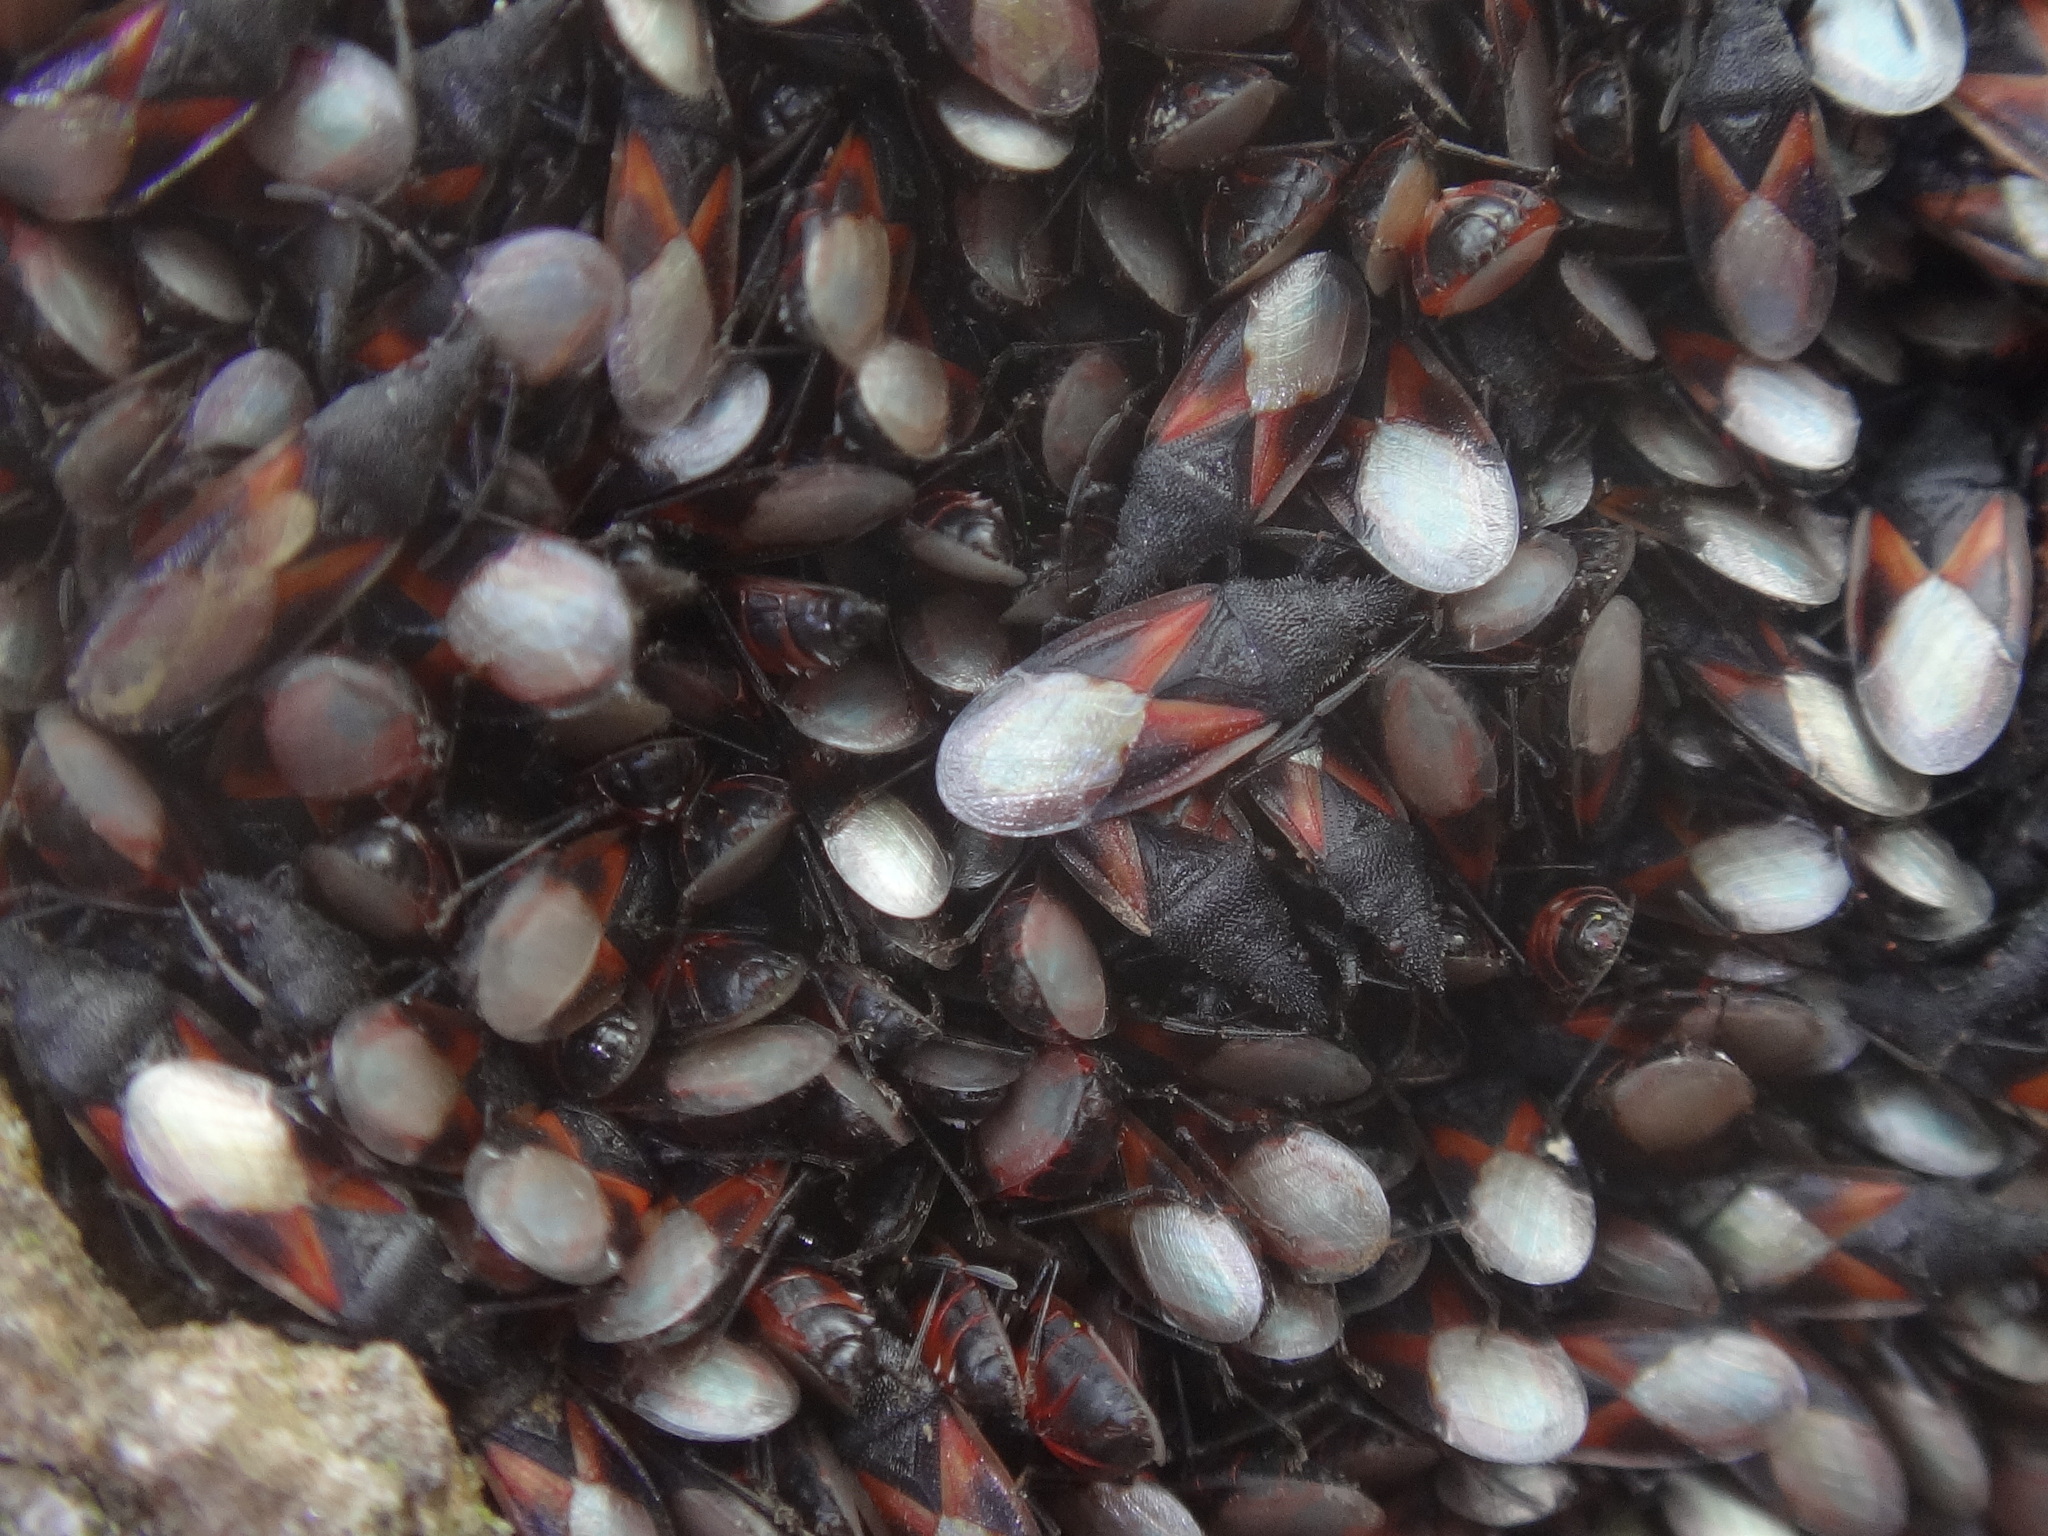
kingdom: Animalia
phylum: Arthropoda
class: Insecta
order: Hemiptera
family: Oxycarenidae
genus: Oxycarenus
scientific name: Oxycarenus lavaterae
